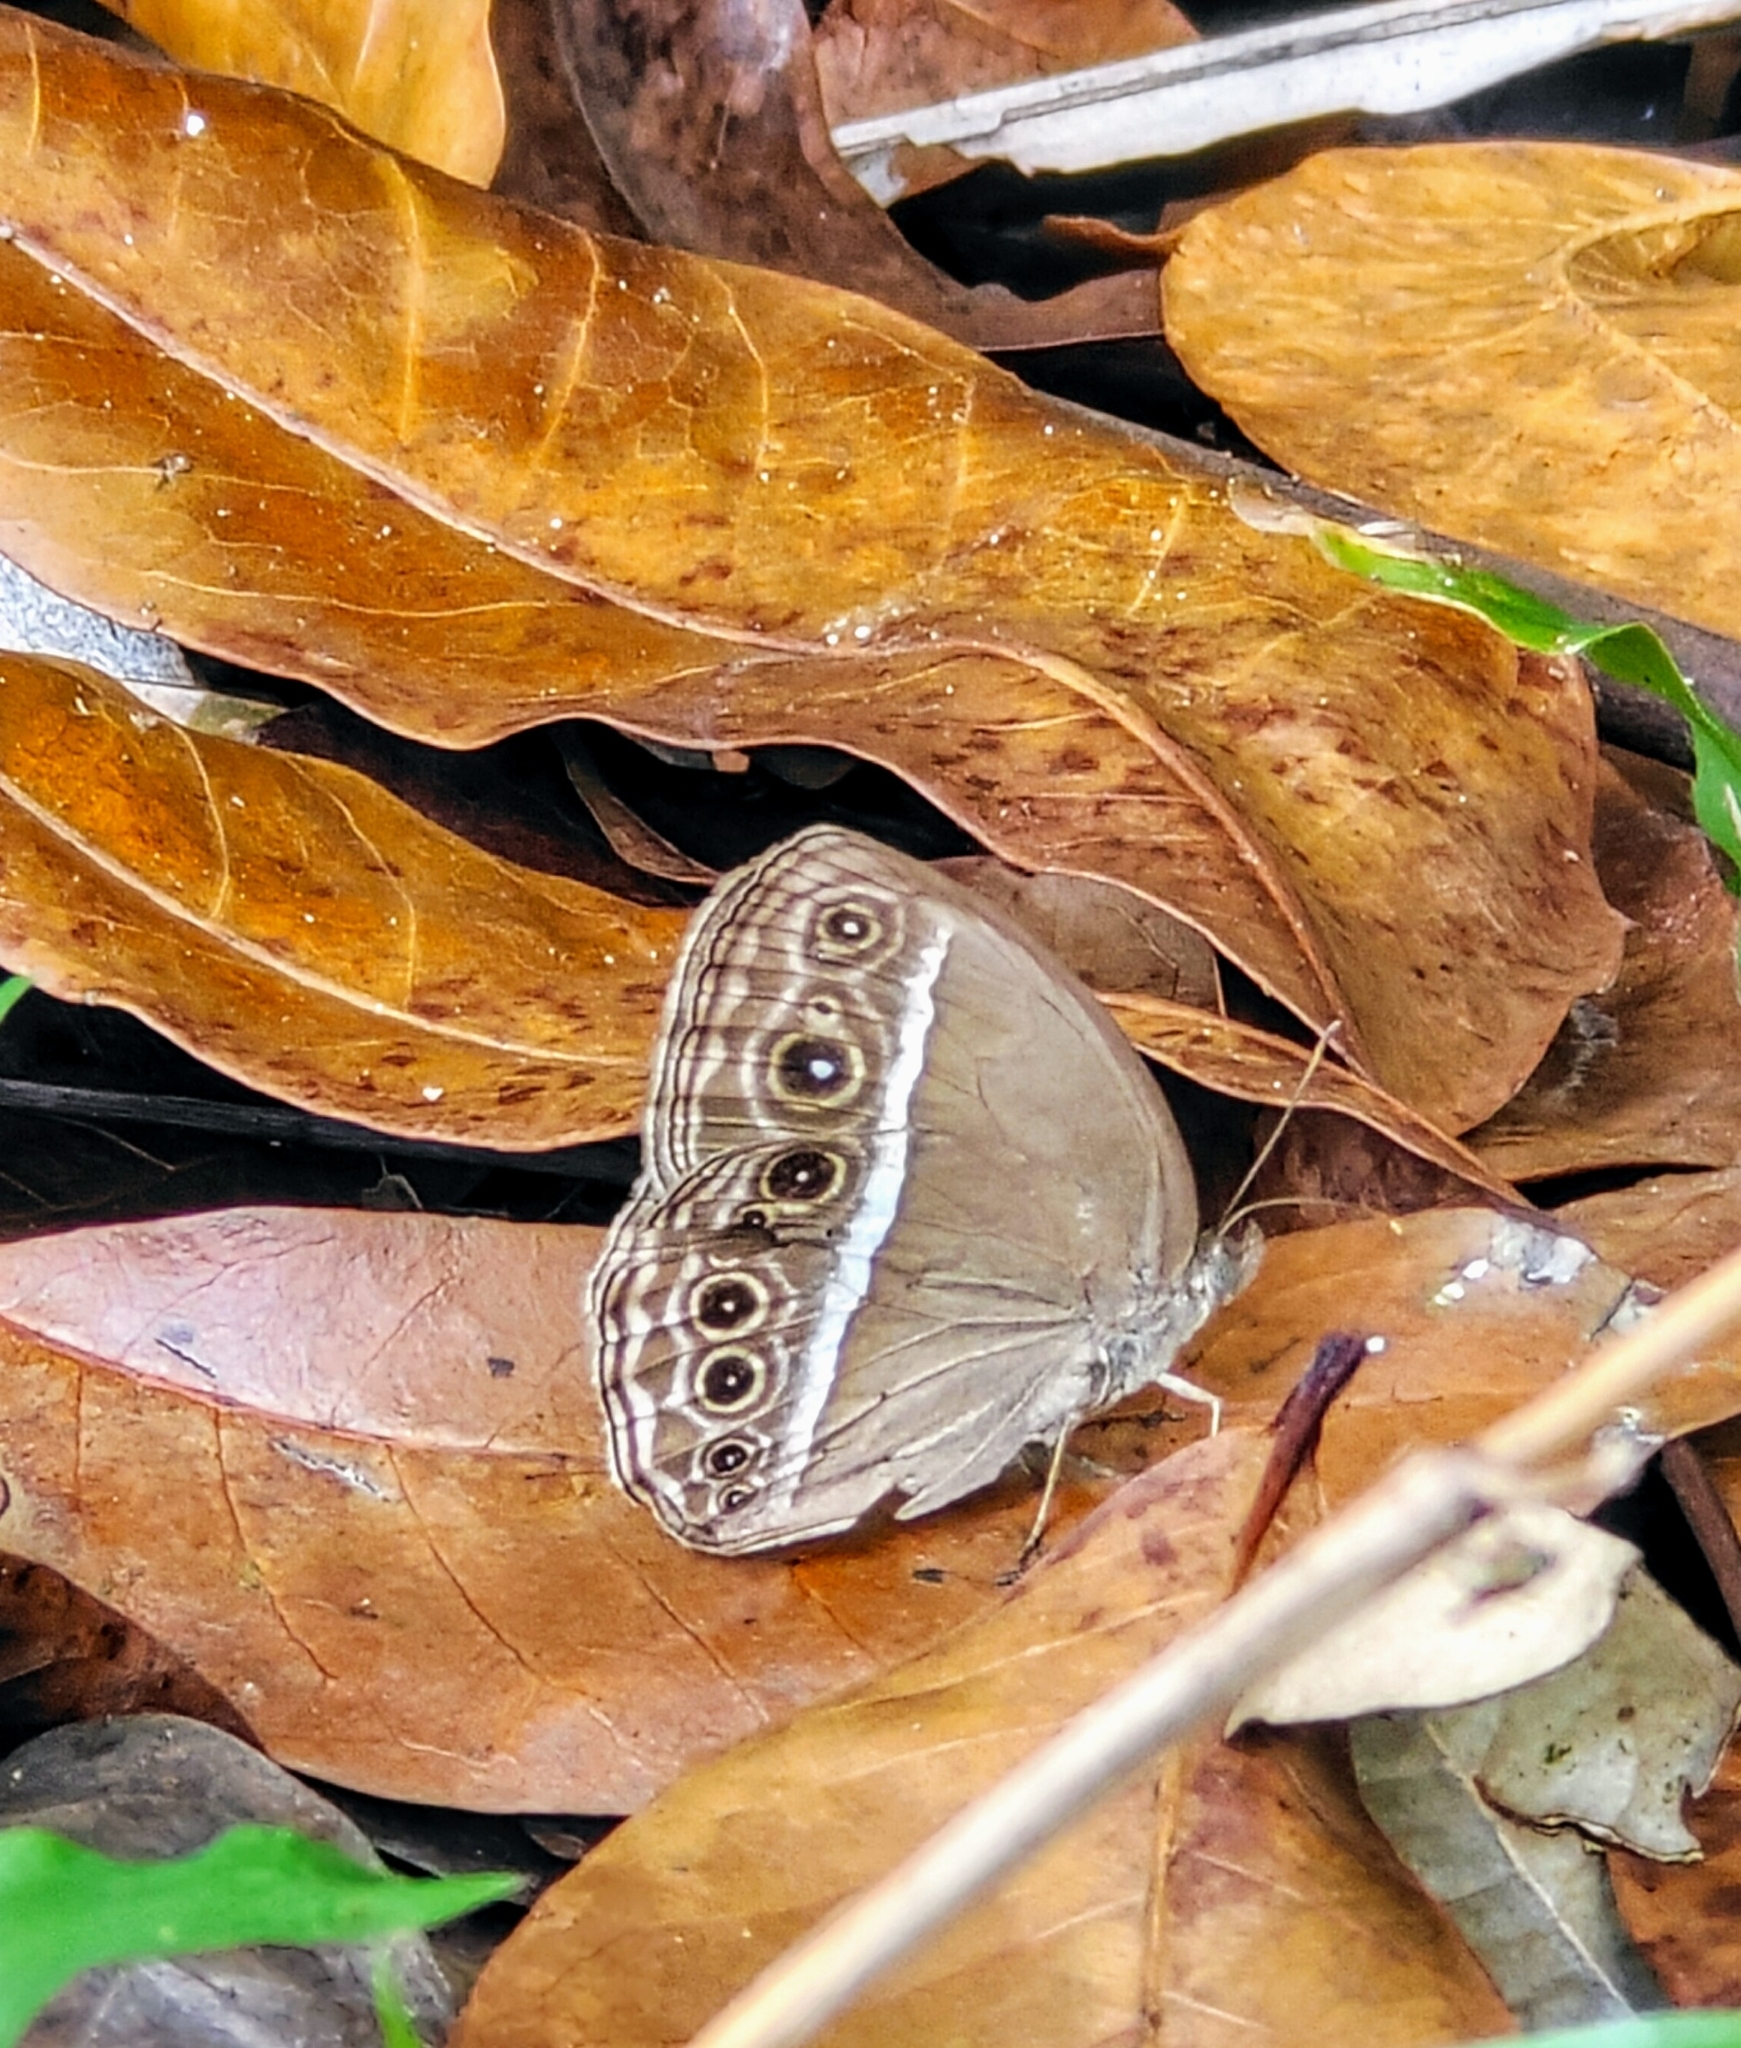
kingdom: Animalia
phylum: Arthropoda
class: Insecta
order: Lepidoptera
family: Nymphalidae
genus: Mycalesis
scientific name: Mycalesis mineus
